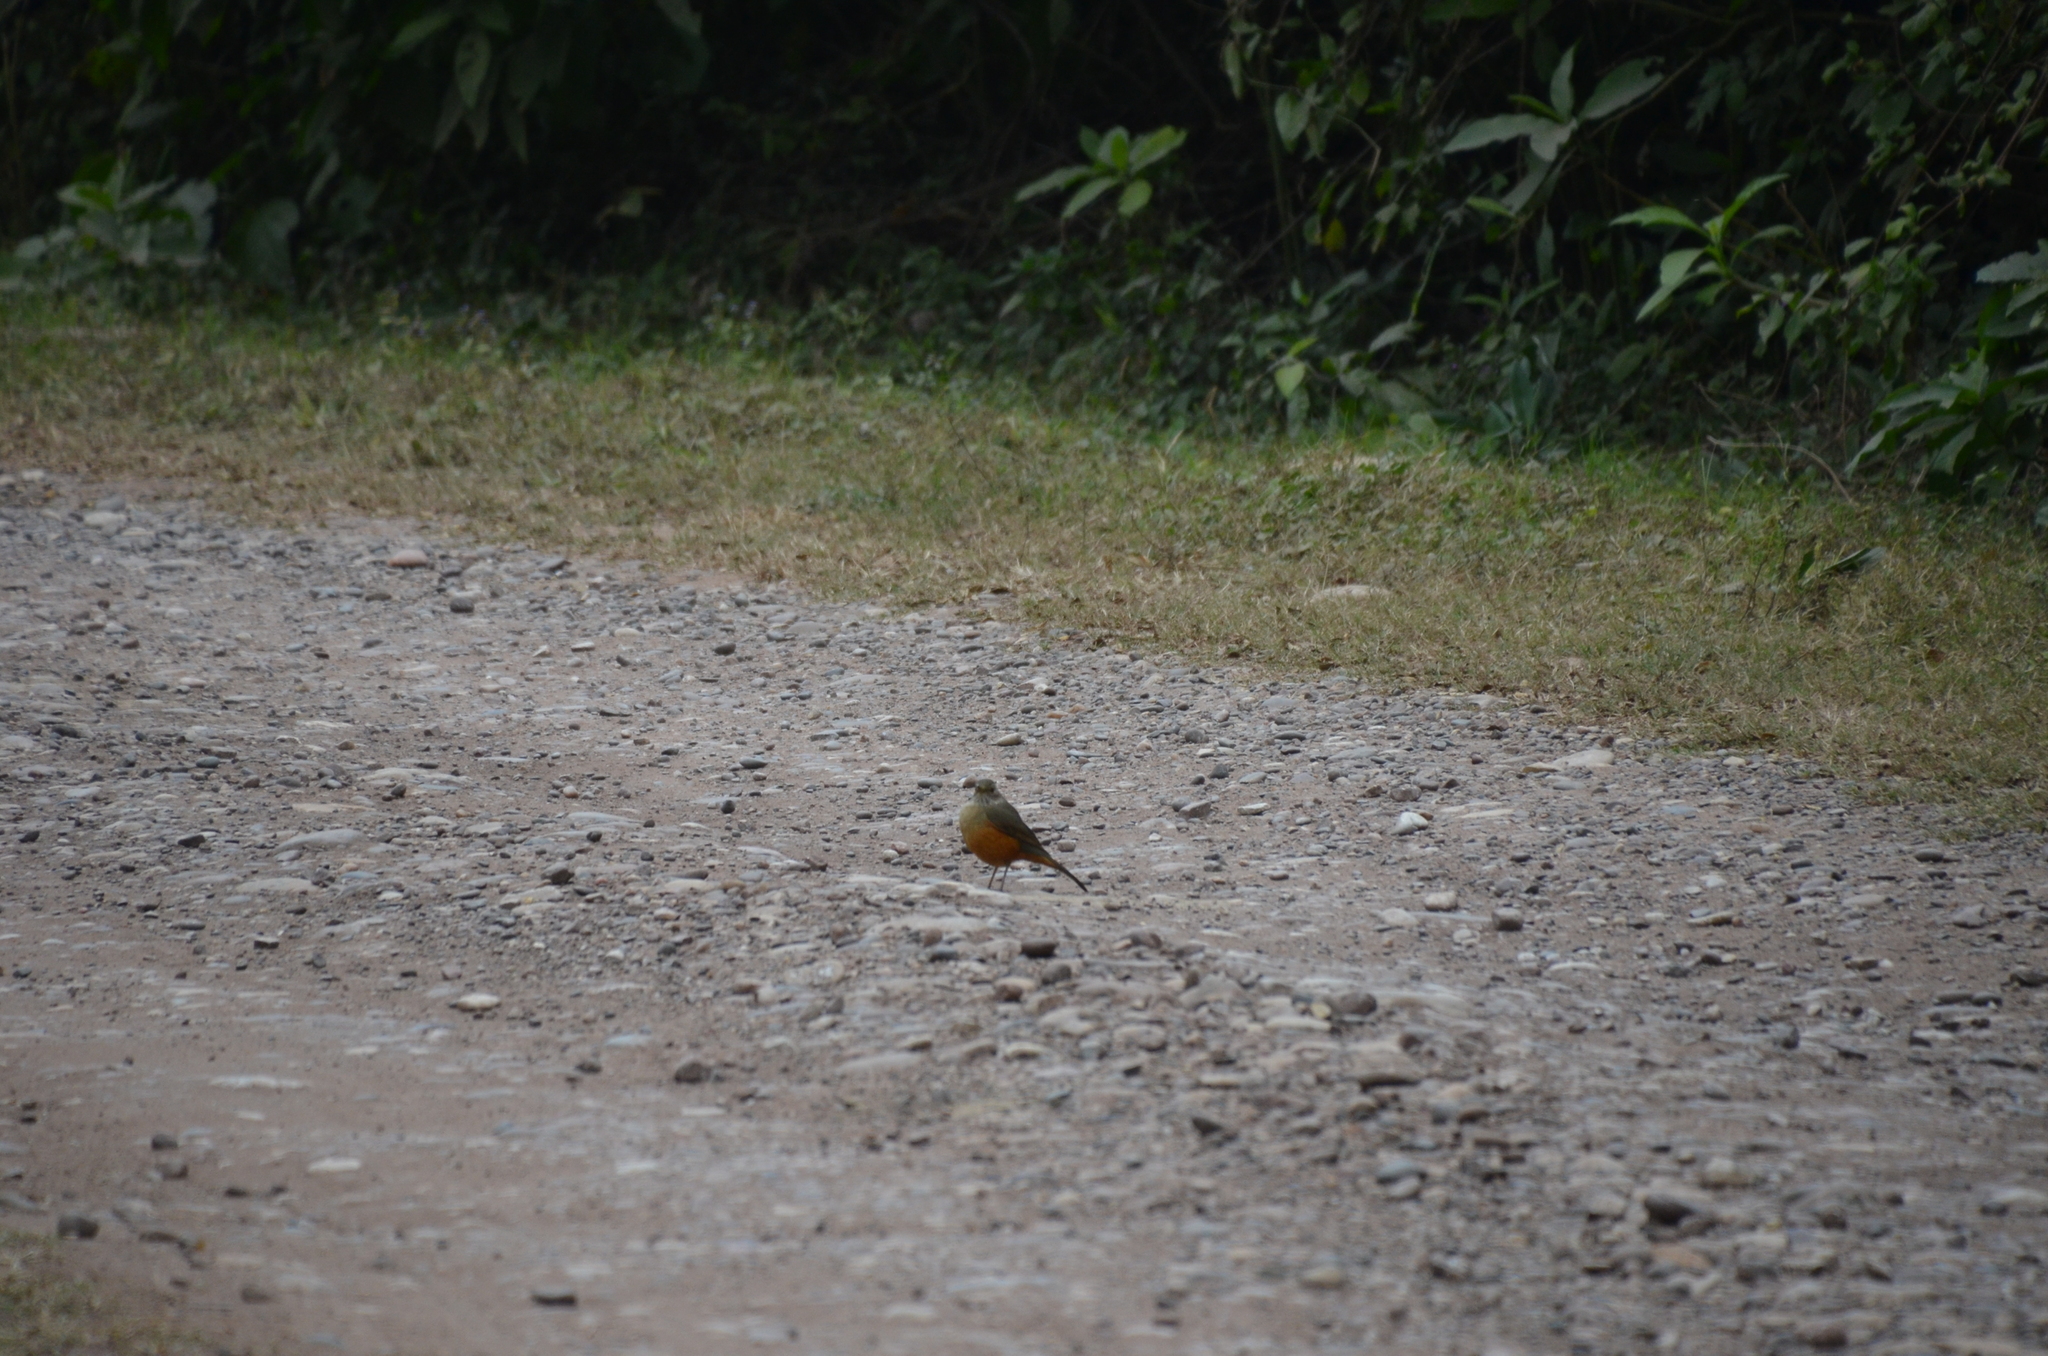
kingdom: Animalia
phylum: Chordata
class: Aves
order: Passeriformes
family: Turdidae
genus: Turdus
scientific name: Turdus rufiventris
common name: Rufous-bellied thrush
